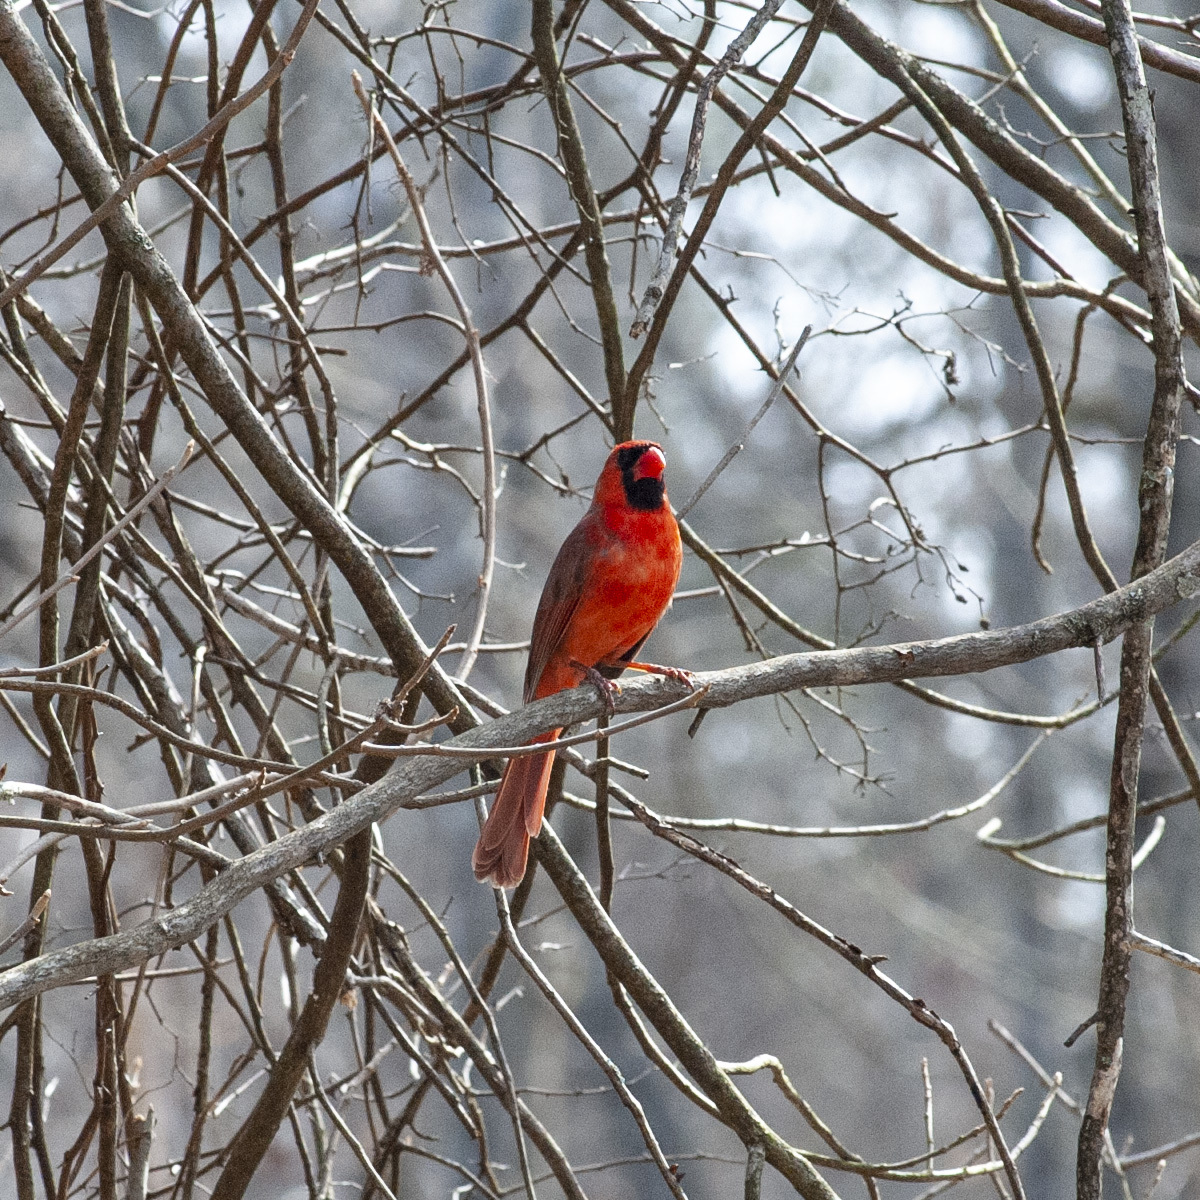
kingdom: Animalia
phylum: Chordata
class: Aves
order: Passeriformes
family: Cardinalidae
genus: Cardinalis
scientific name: Cardinalis cardinalis
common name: Northern cardinal
